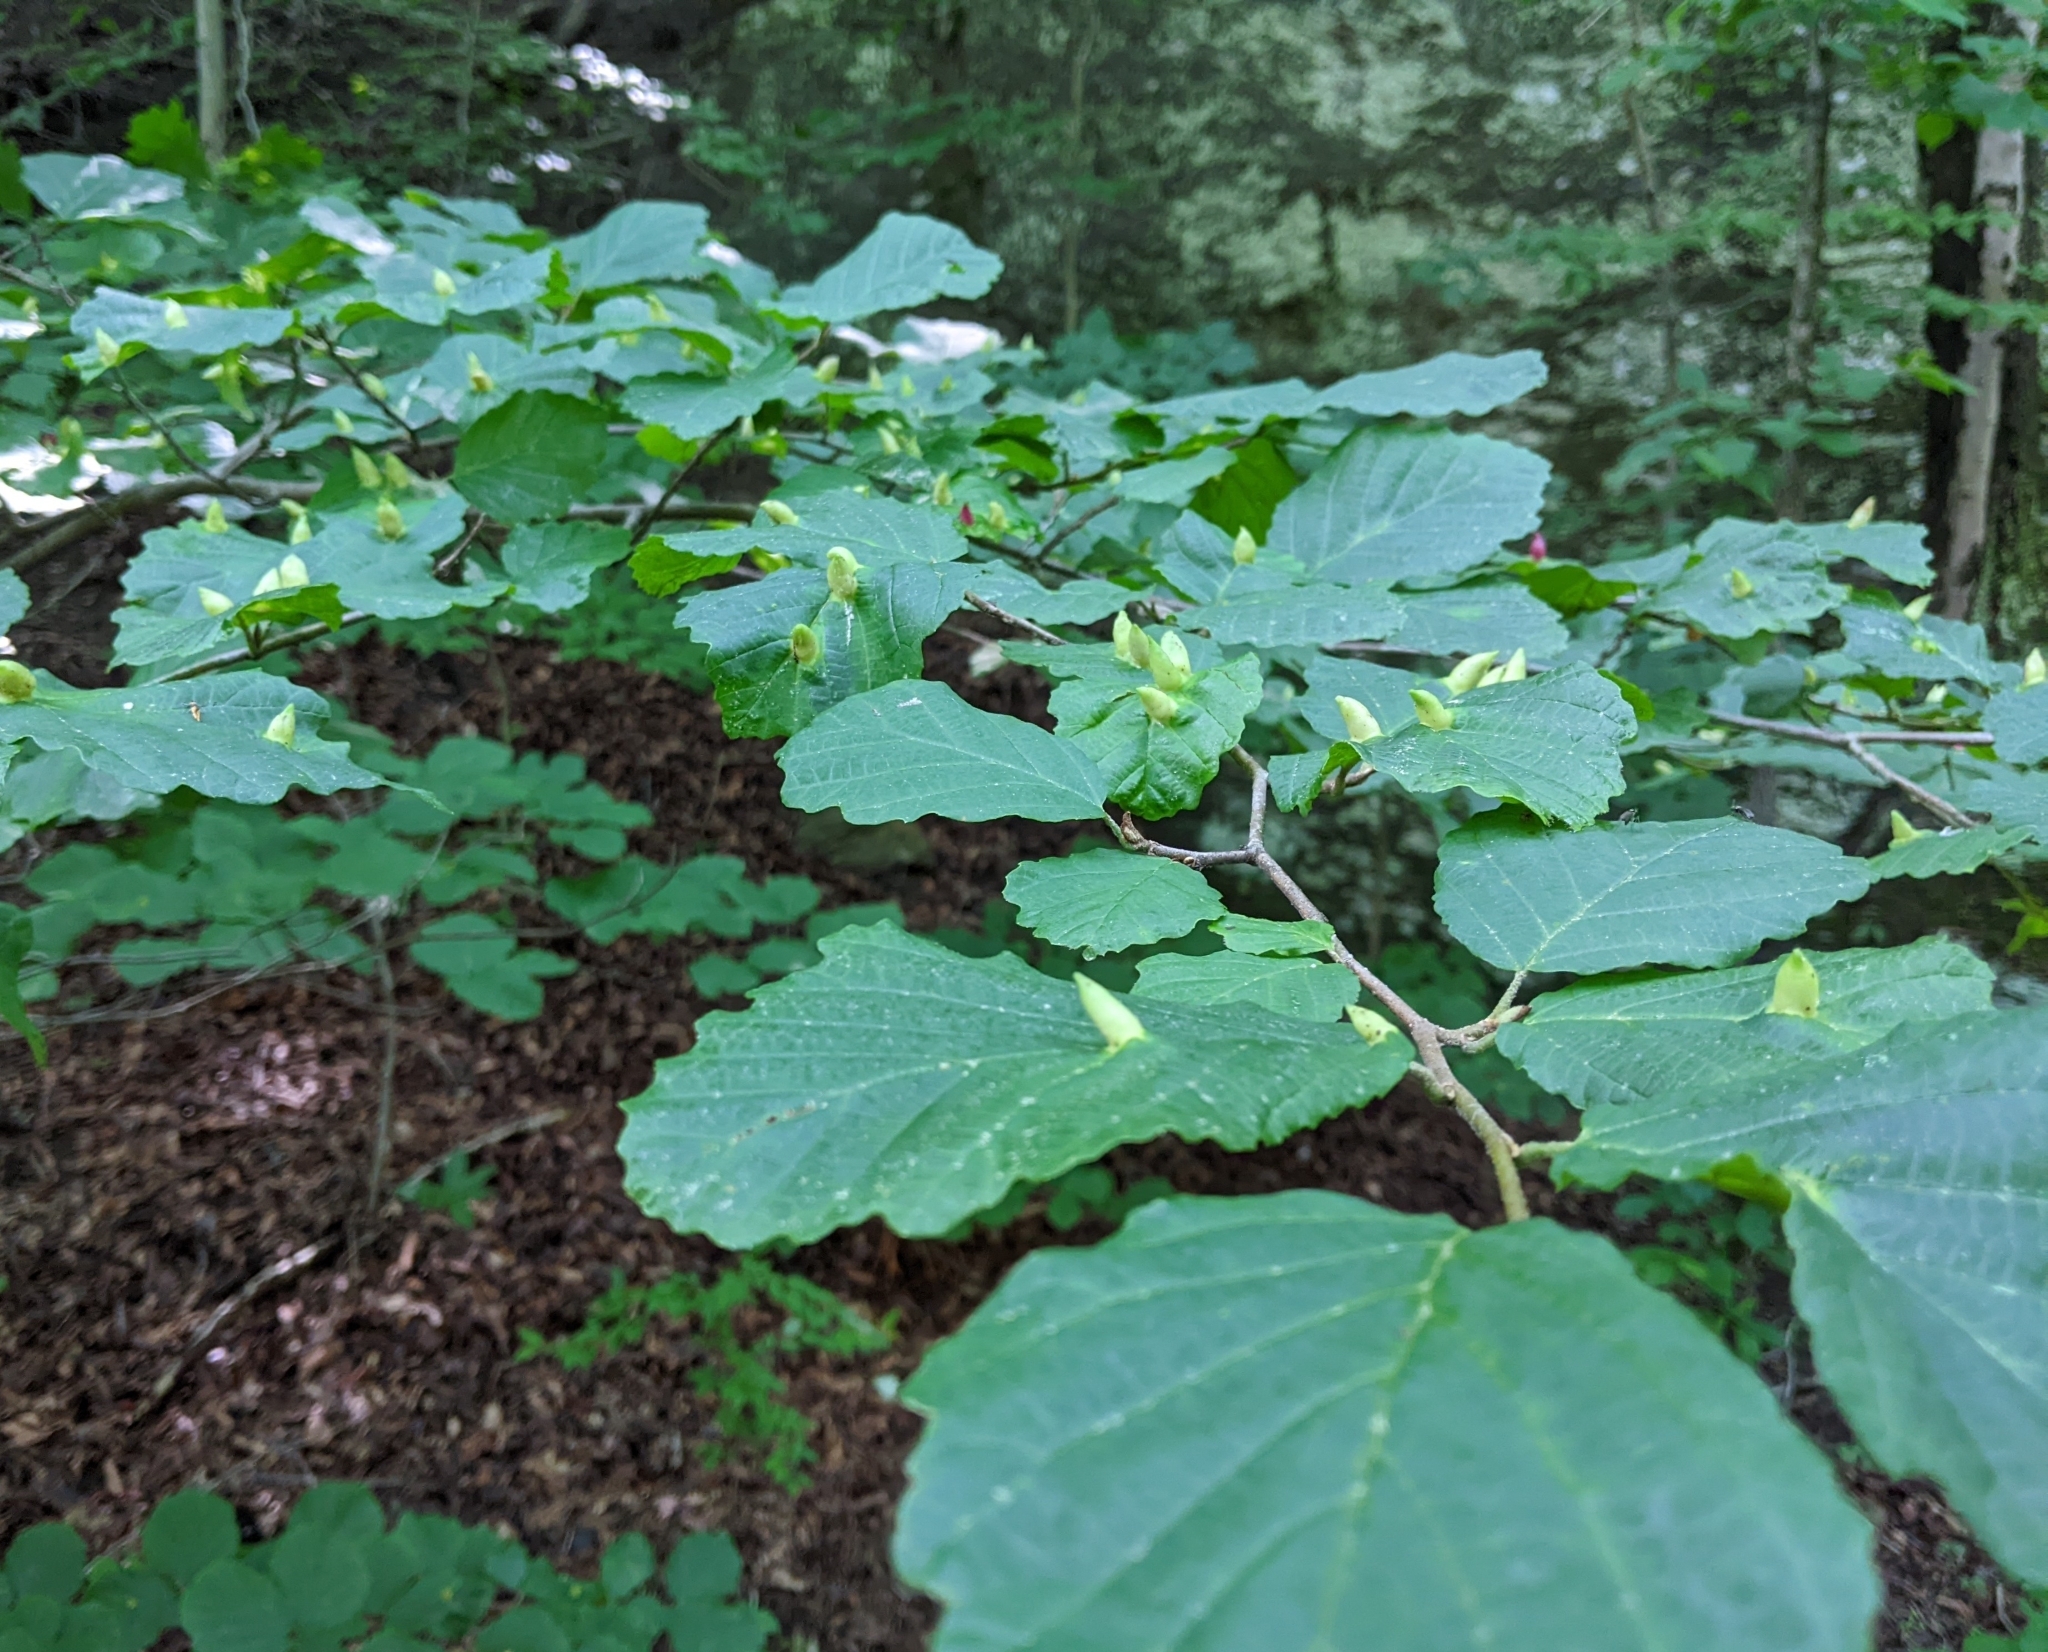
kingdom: Animalia
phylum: Arthropoda
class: Insecta
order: Hemiptera
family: Aphididae
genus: Hormaphis
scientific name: Hormaphis hamamelidis
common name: Witch-hazel cone gall aphid
